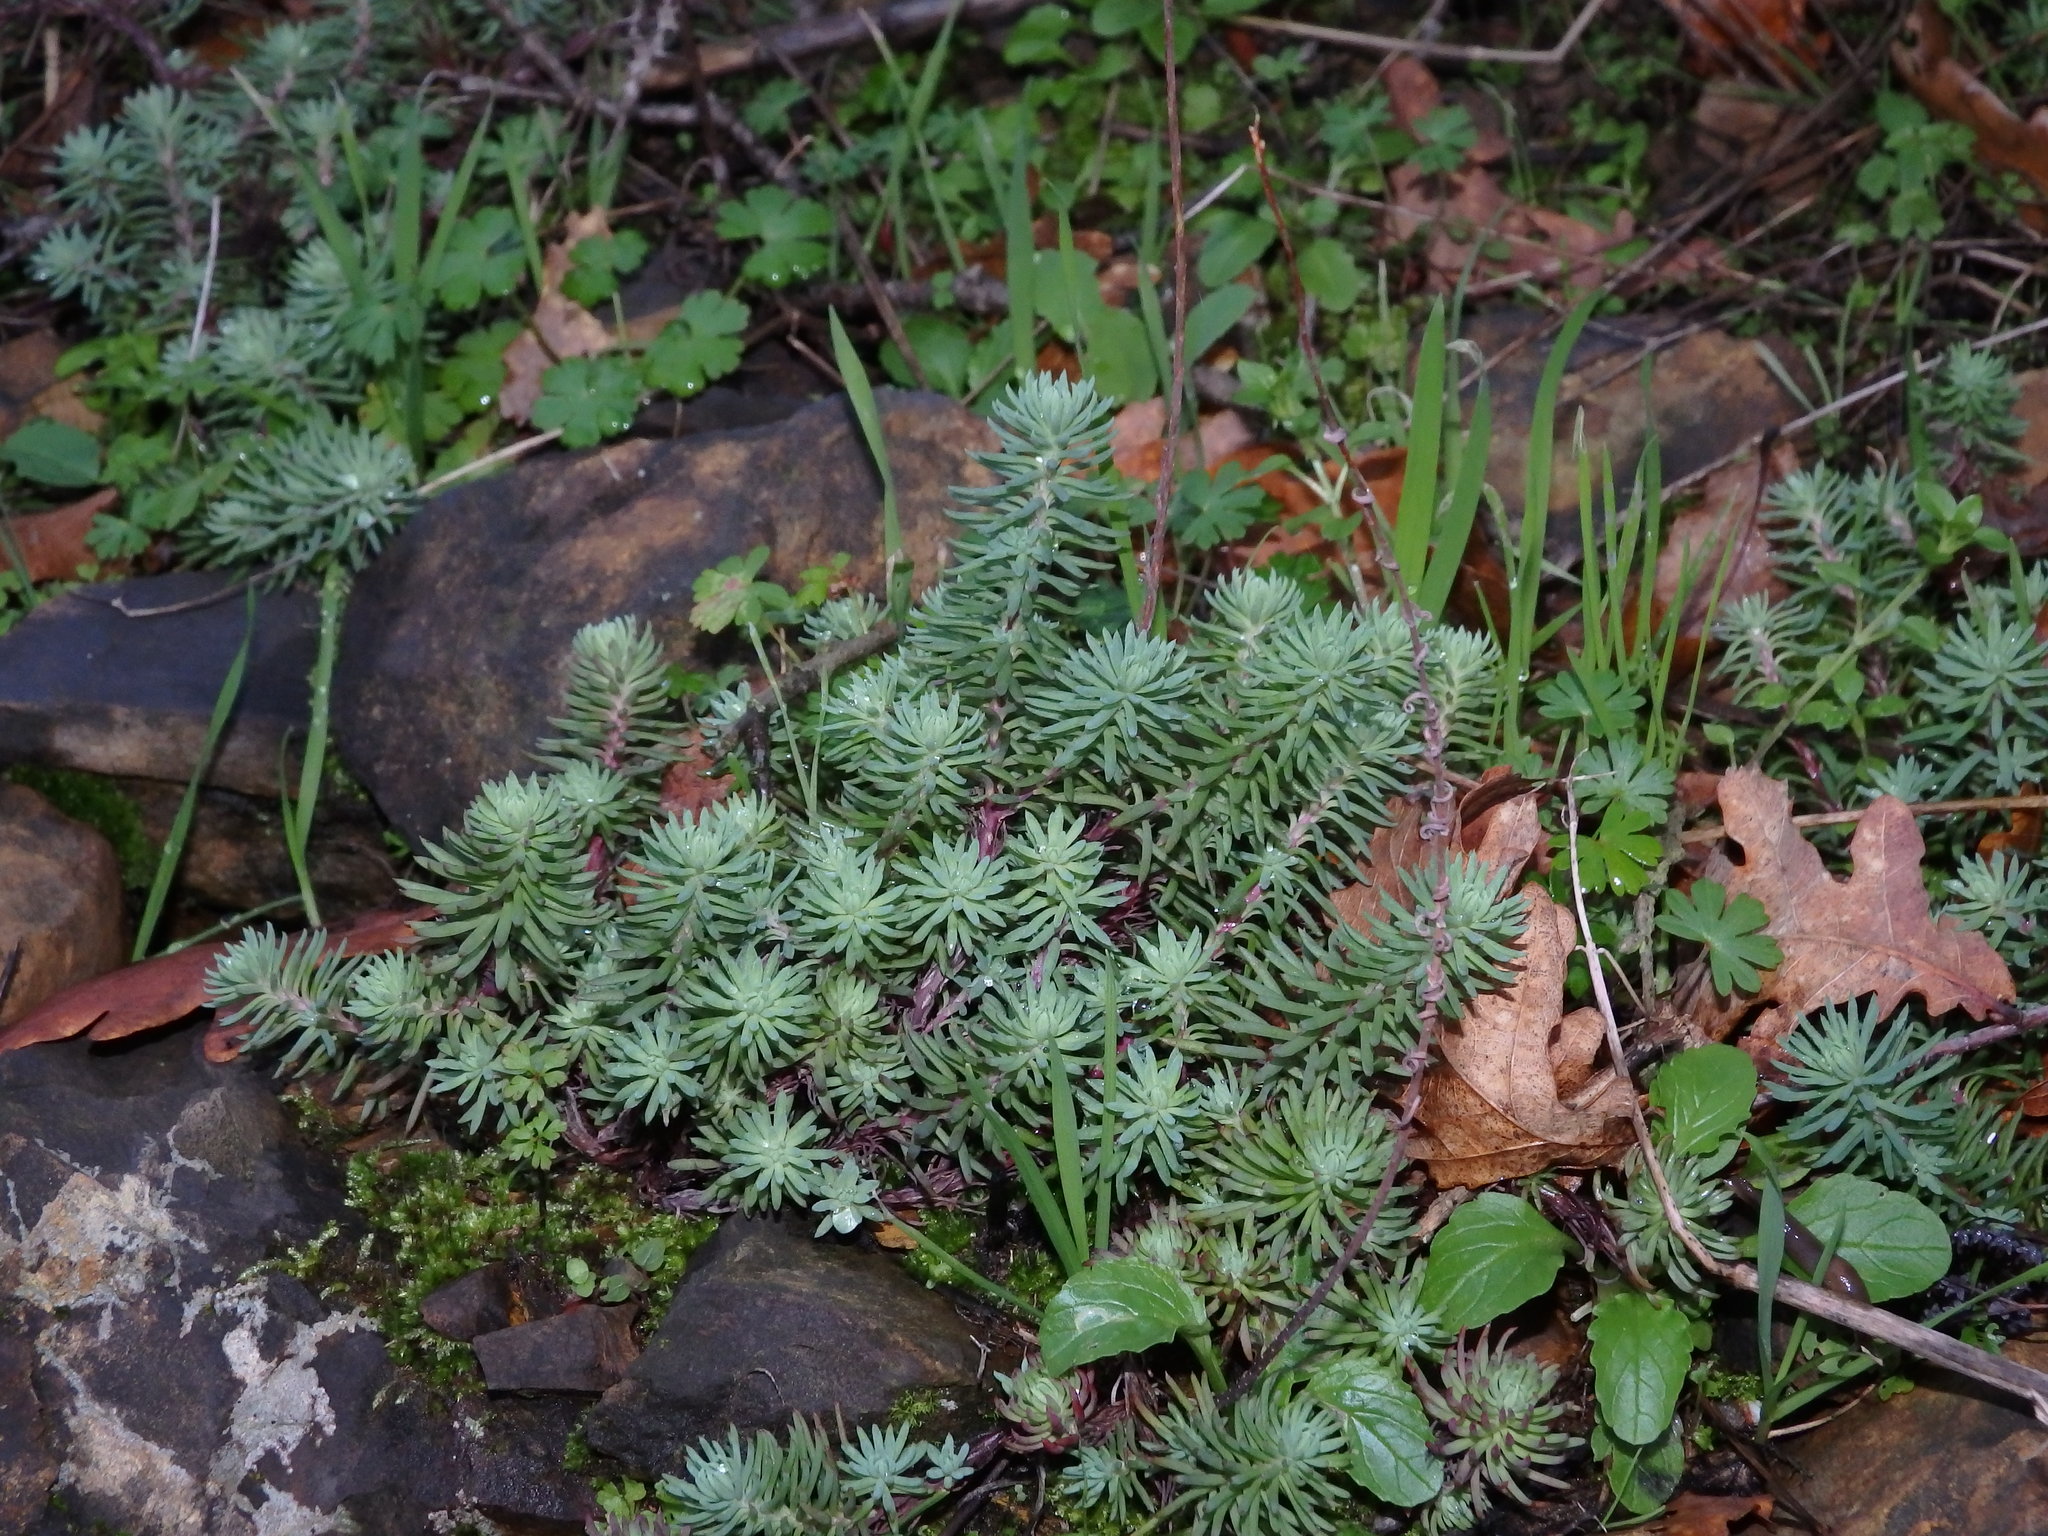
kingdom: Plantae
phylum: Tracheophyta
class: Magnoliopsida
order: Saxifragales
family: Crassulaceae
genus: Petrosedum
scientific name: Petrosedum forsterianum
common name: Forster's stonecrop
